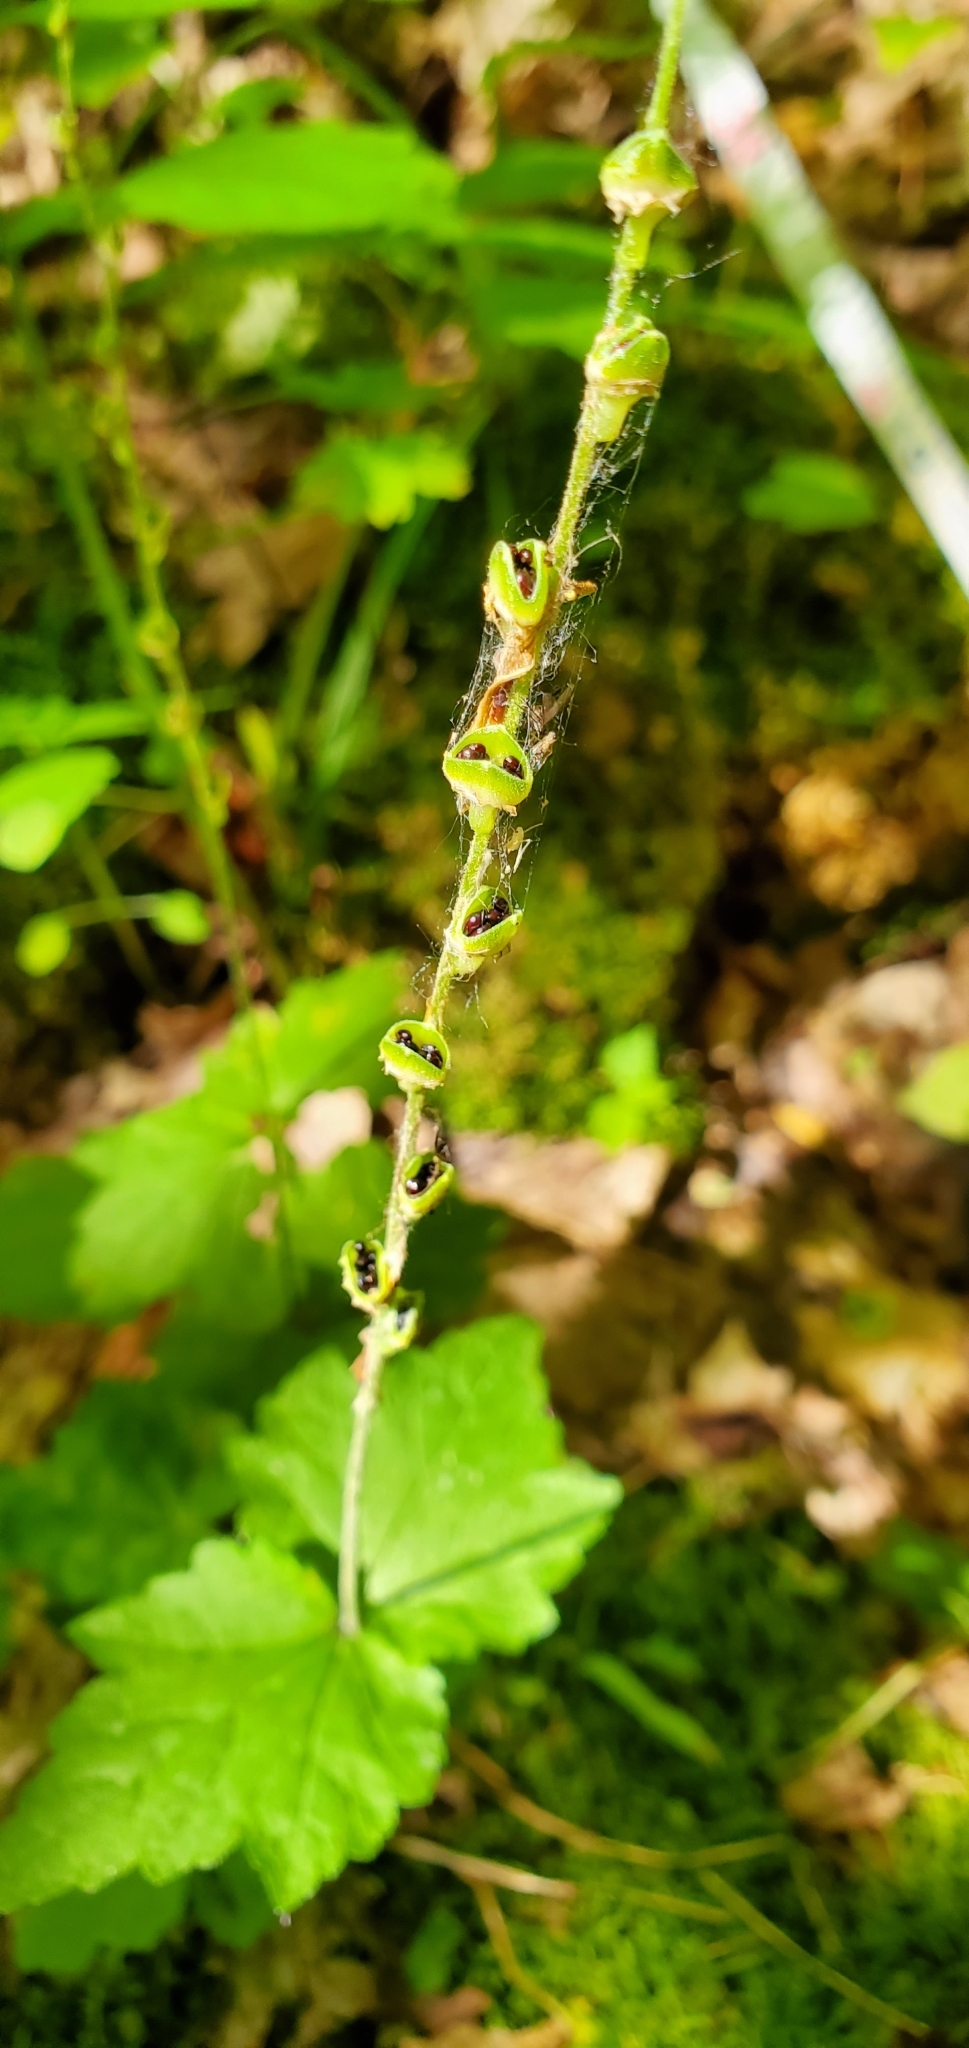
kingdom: Plantae
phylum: Tracheophyta
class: Magnoliopsida
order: Saxifragales
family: Saxifragaceae
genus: Mitella
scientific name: Mitella diphylla
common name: Coolwort
